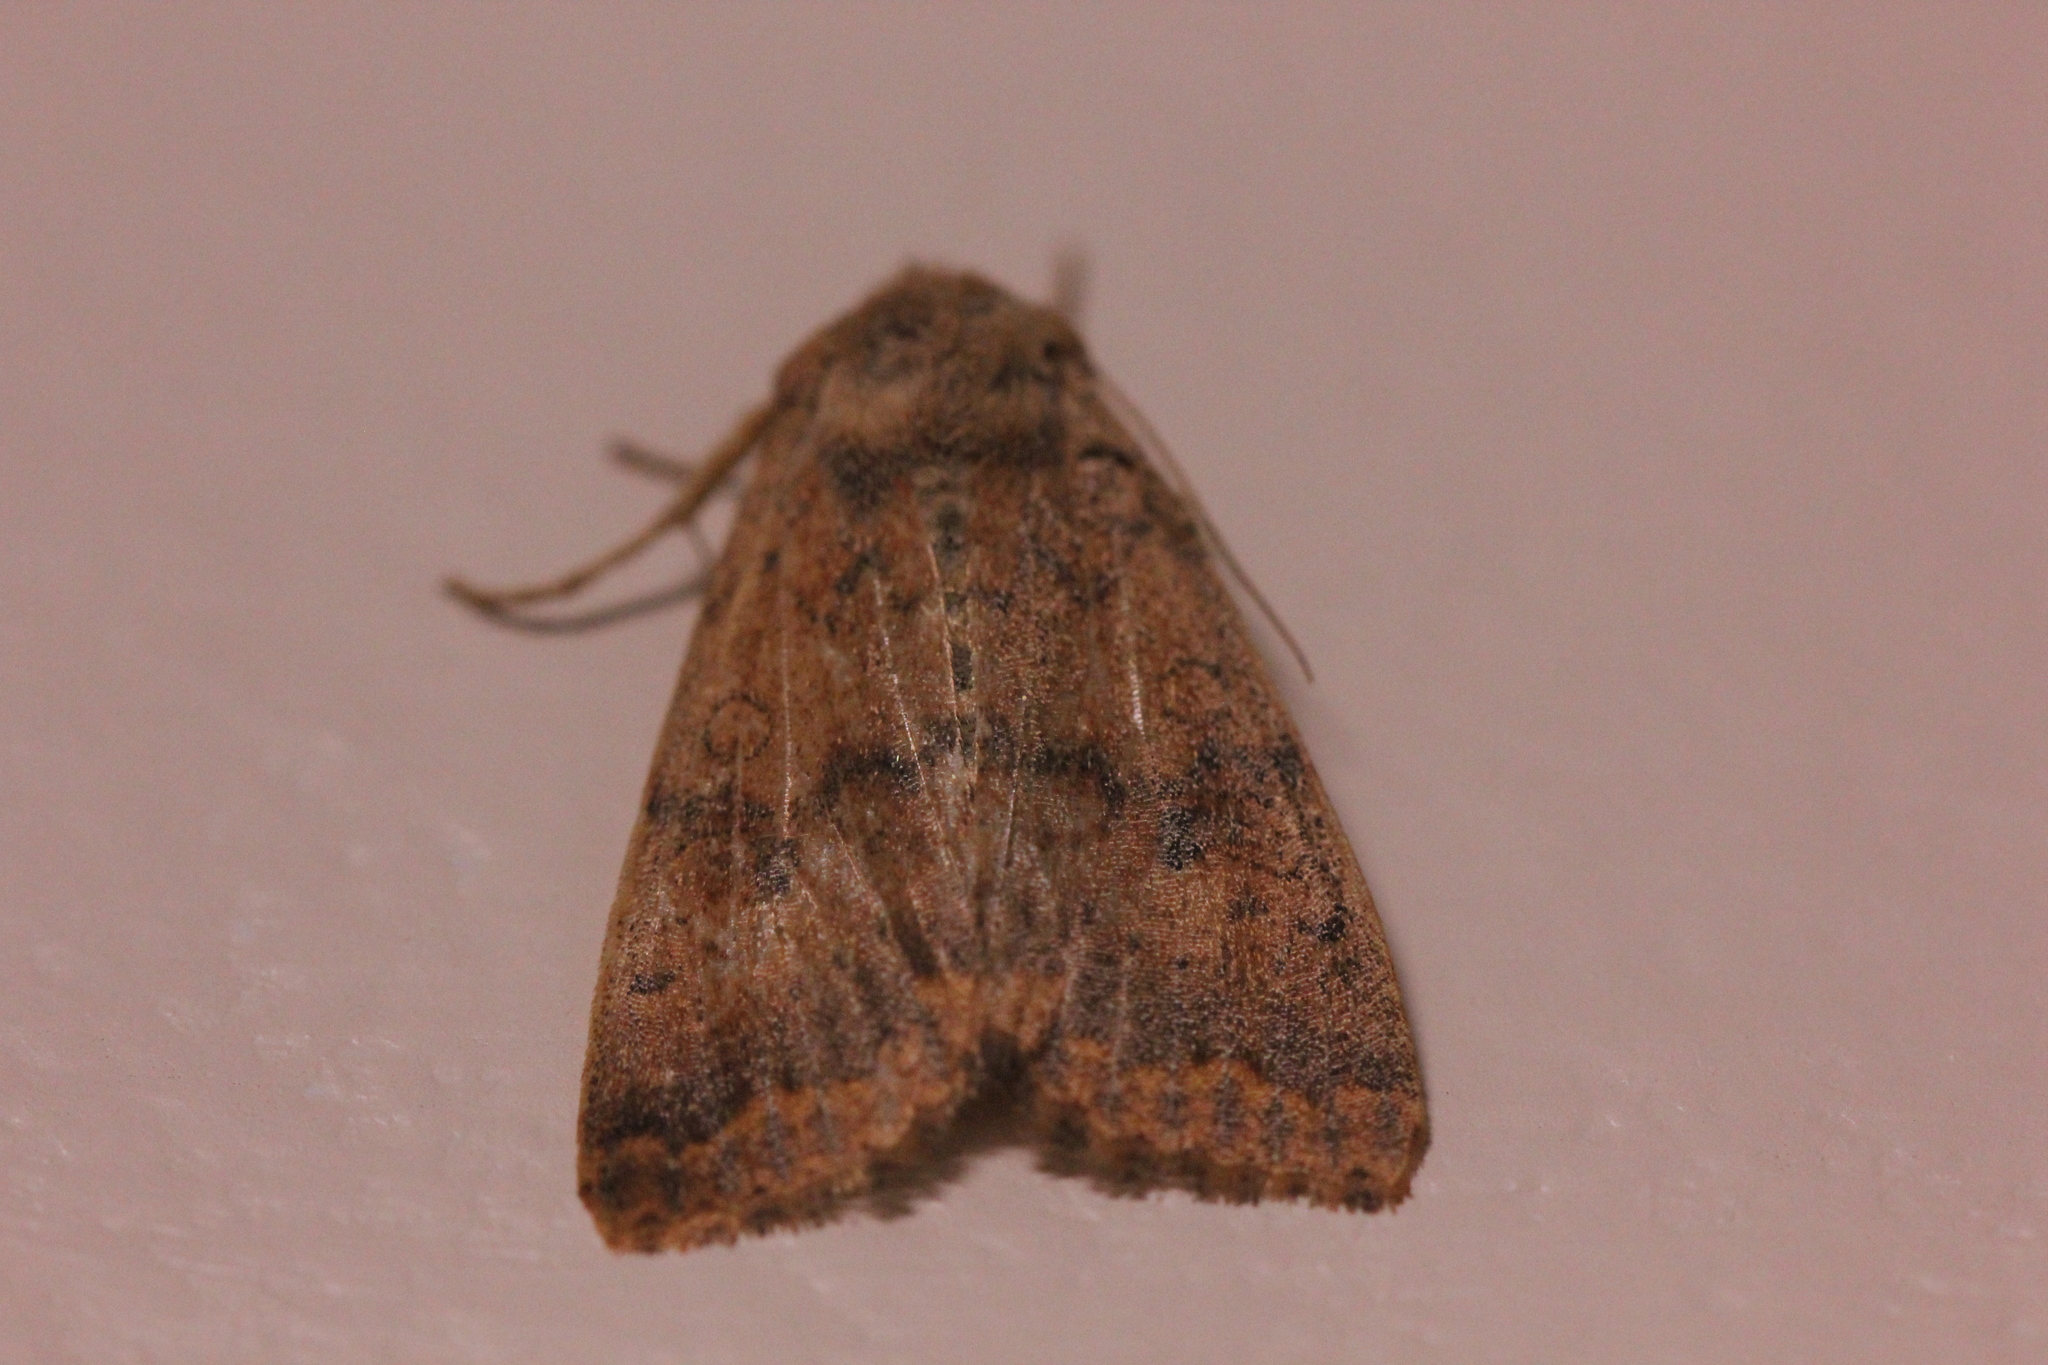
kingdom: Animalia
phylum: Arthropoda
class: Insecta
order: Lepidoptera
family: Noctuidae
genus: Agrochola
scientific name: Agrochola bicolorago
